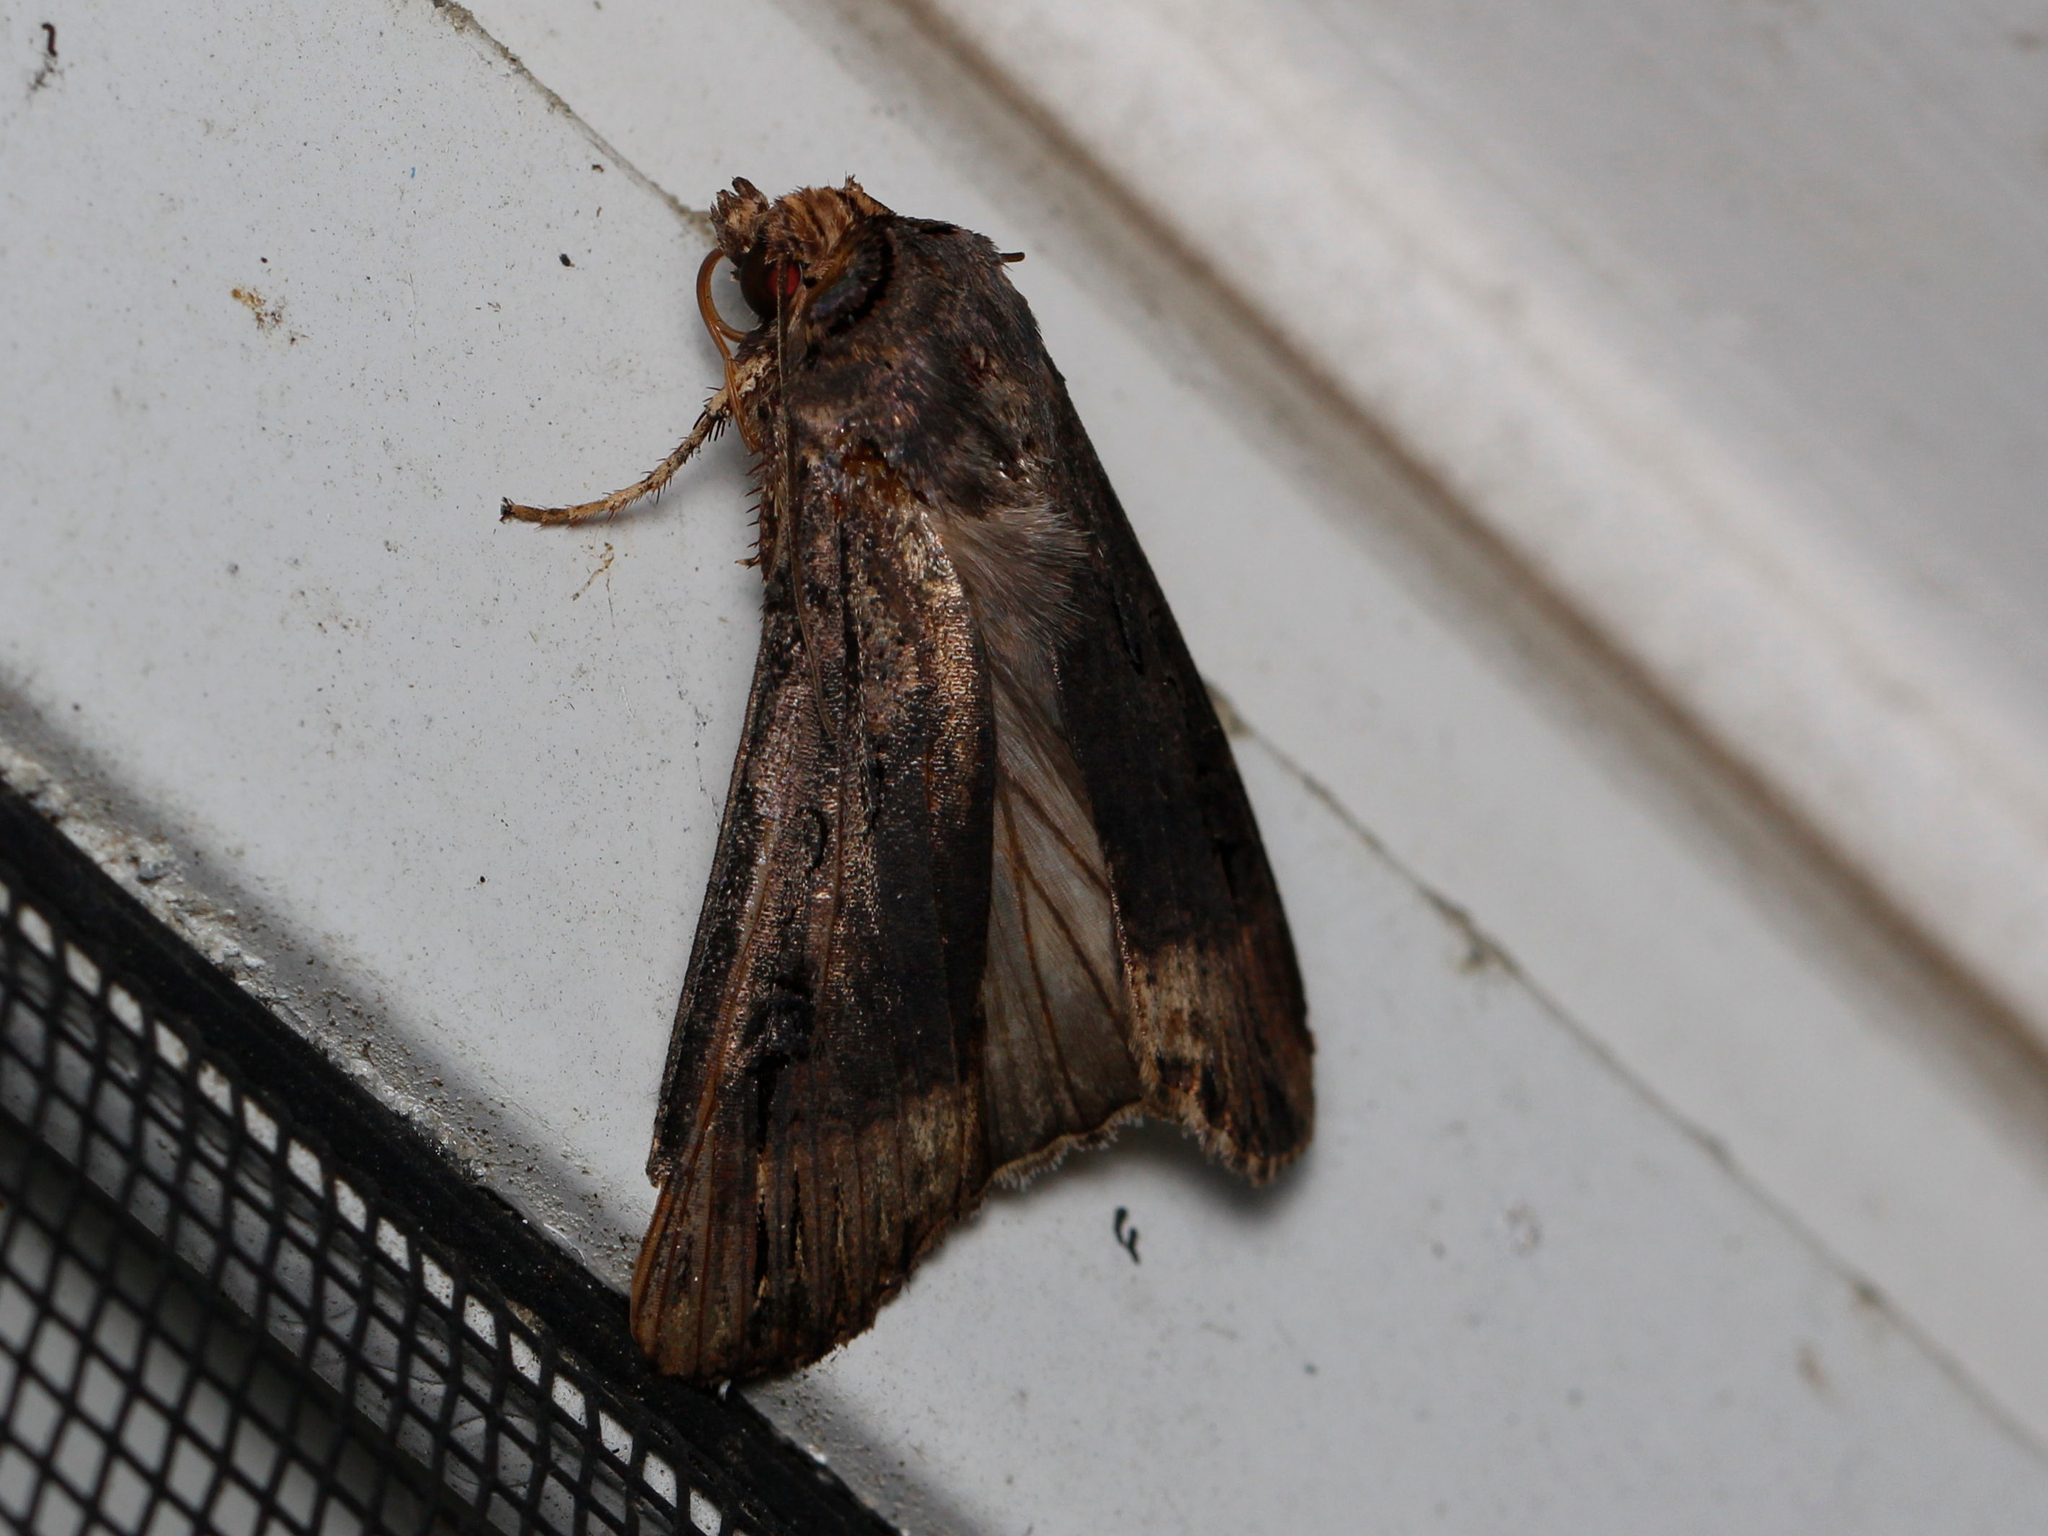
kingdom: Animalia
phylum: Arthropoda
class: Insecta
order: Lepidoptera
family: Noctuidae
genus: Agrotis
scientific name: Agrotis ipsilon
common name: Dark sword-grass
